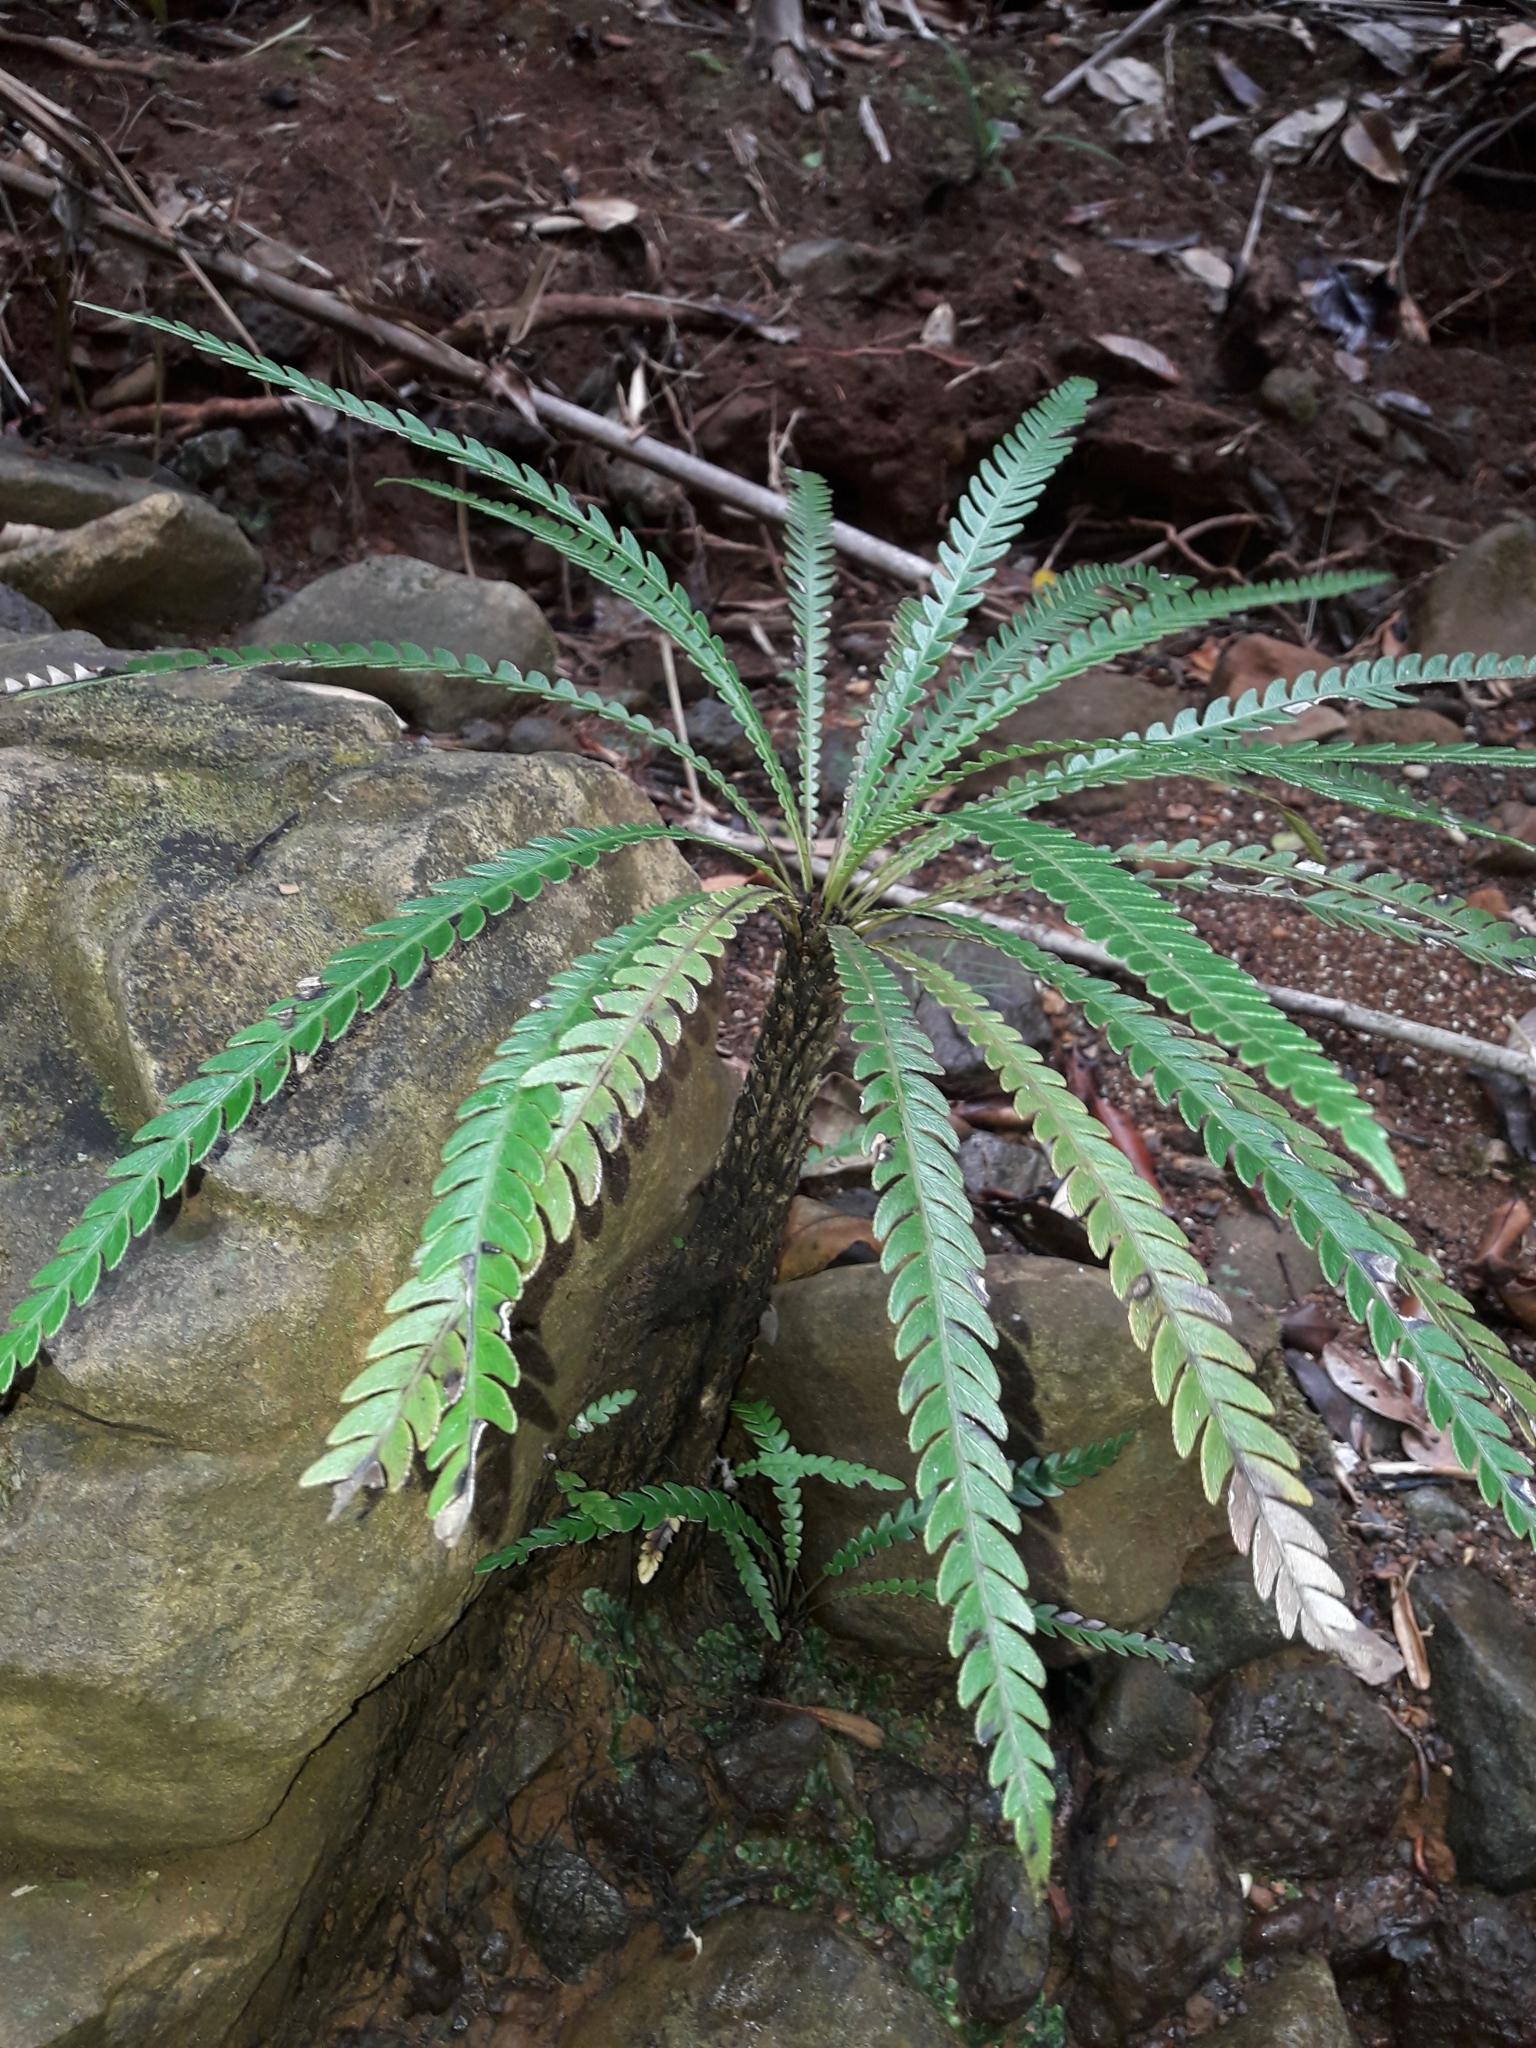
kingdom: Plantae
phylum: Tracheophyta
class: Polypodiopsida
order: Polypodiales
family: Blechnaceae
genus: Oceaniopteris
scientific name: Oceaniopteris obtusata
